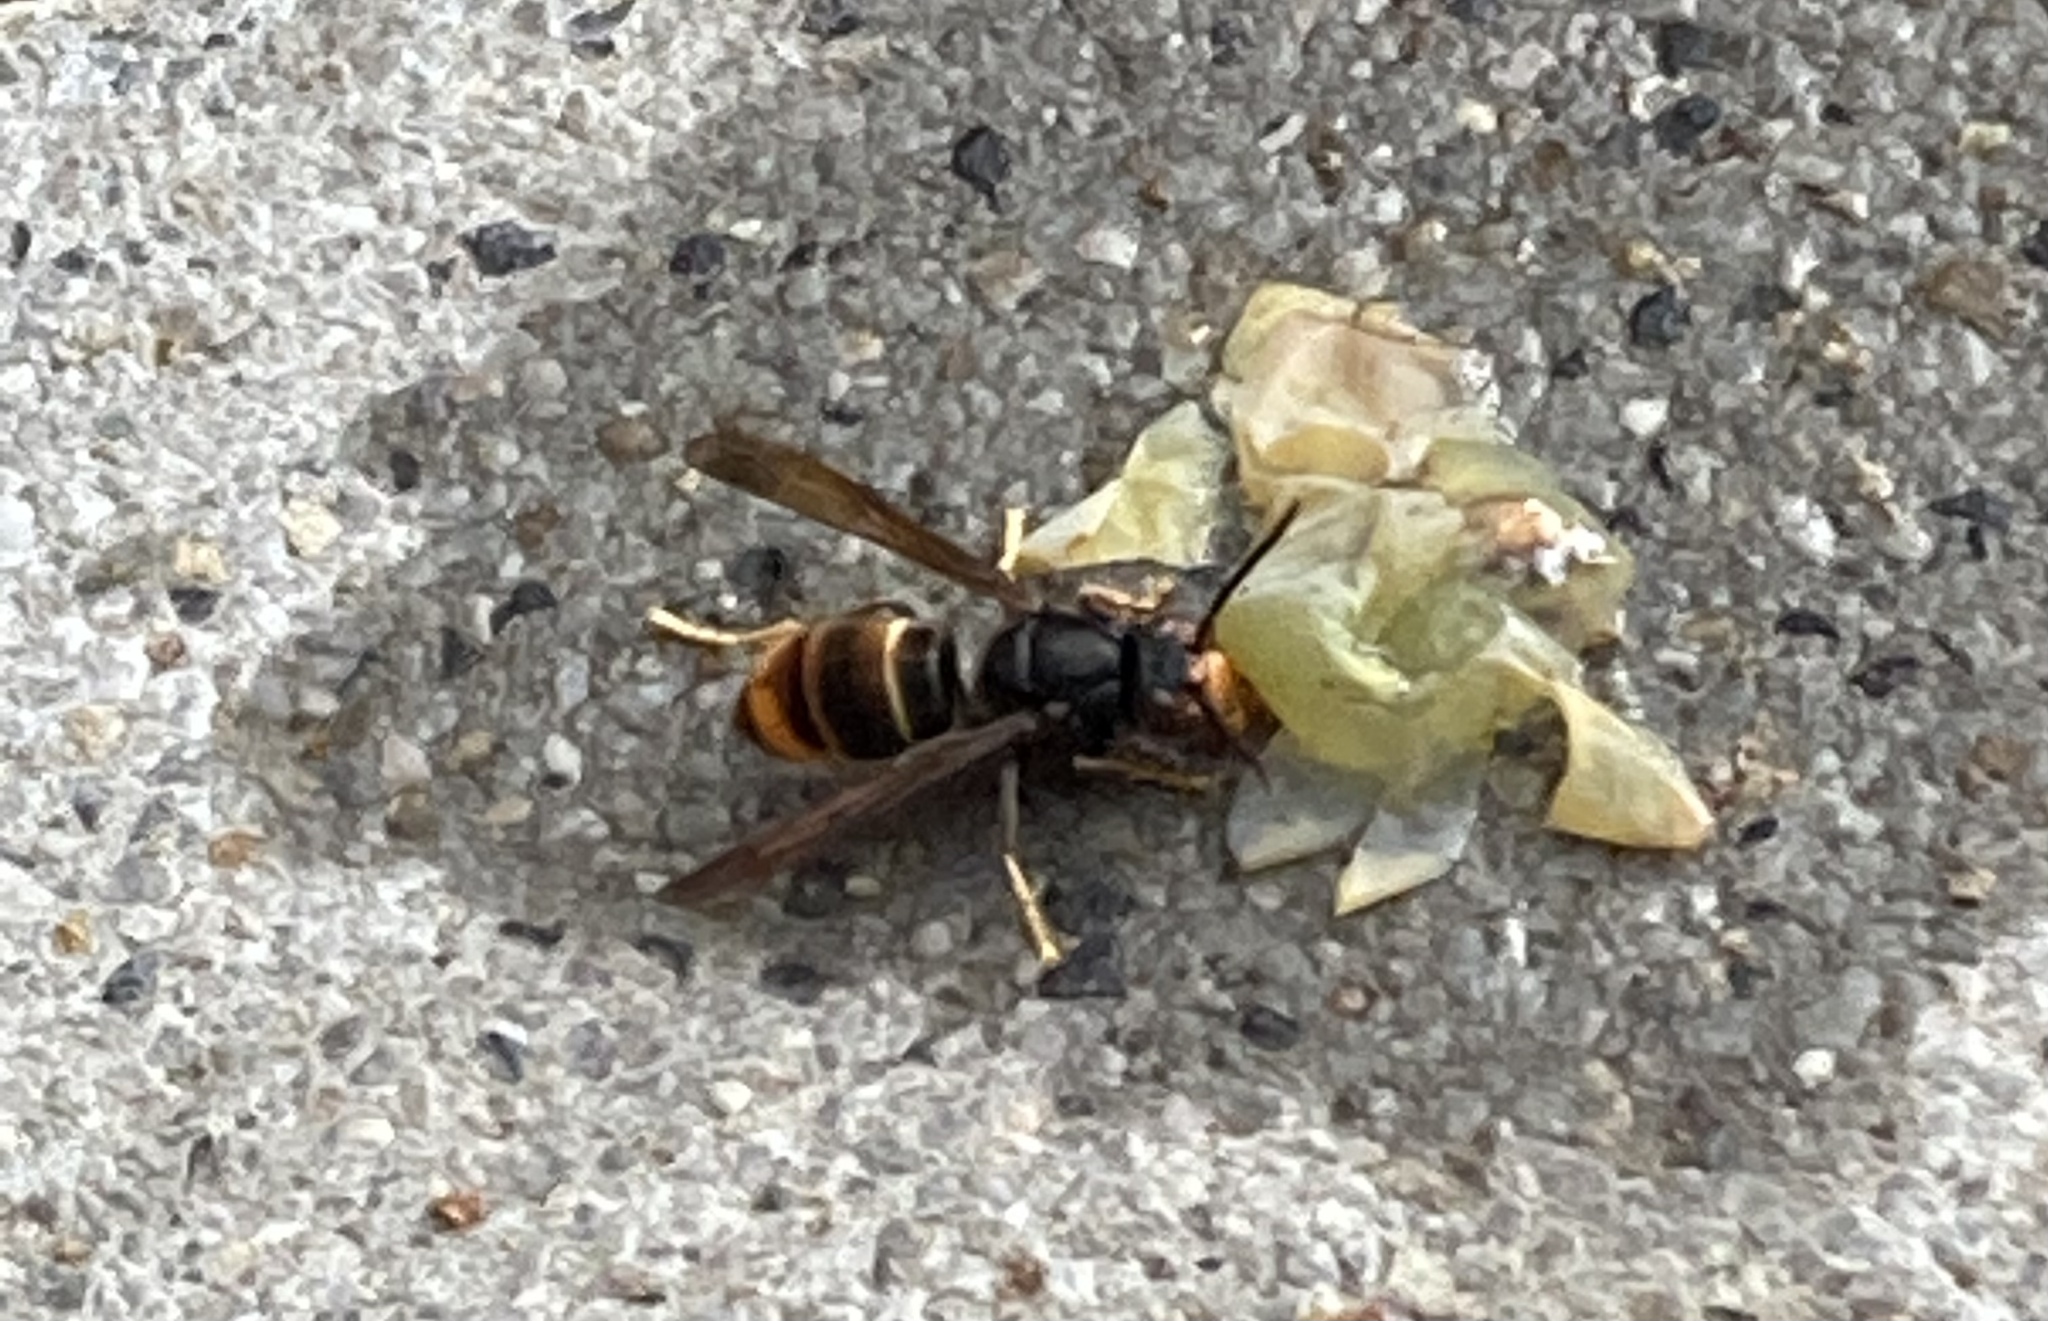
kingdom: Animalia
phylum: Arthropoda
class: Insecta
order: Hymenoptera
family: Vespidae
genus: Vespa
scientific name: Vespa velutina
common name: Asian hornet
